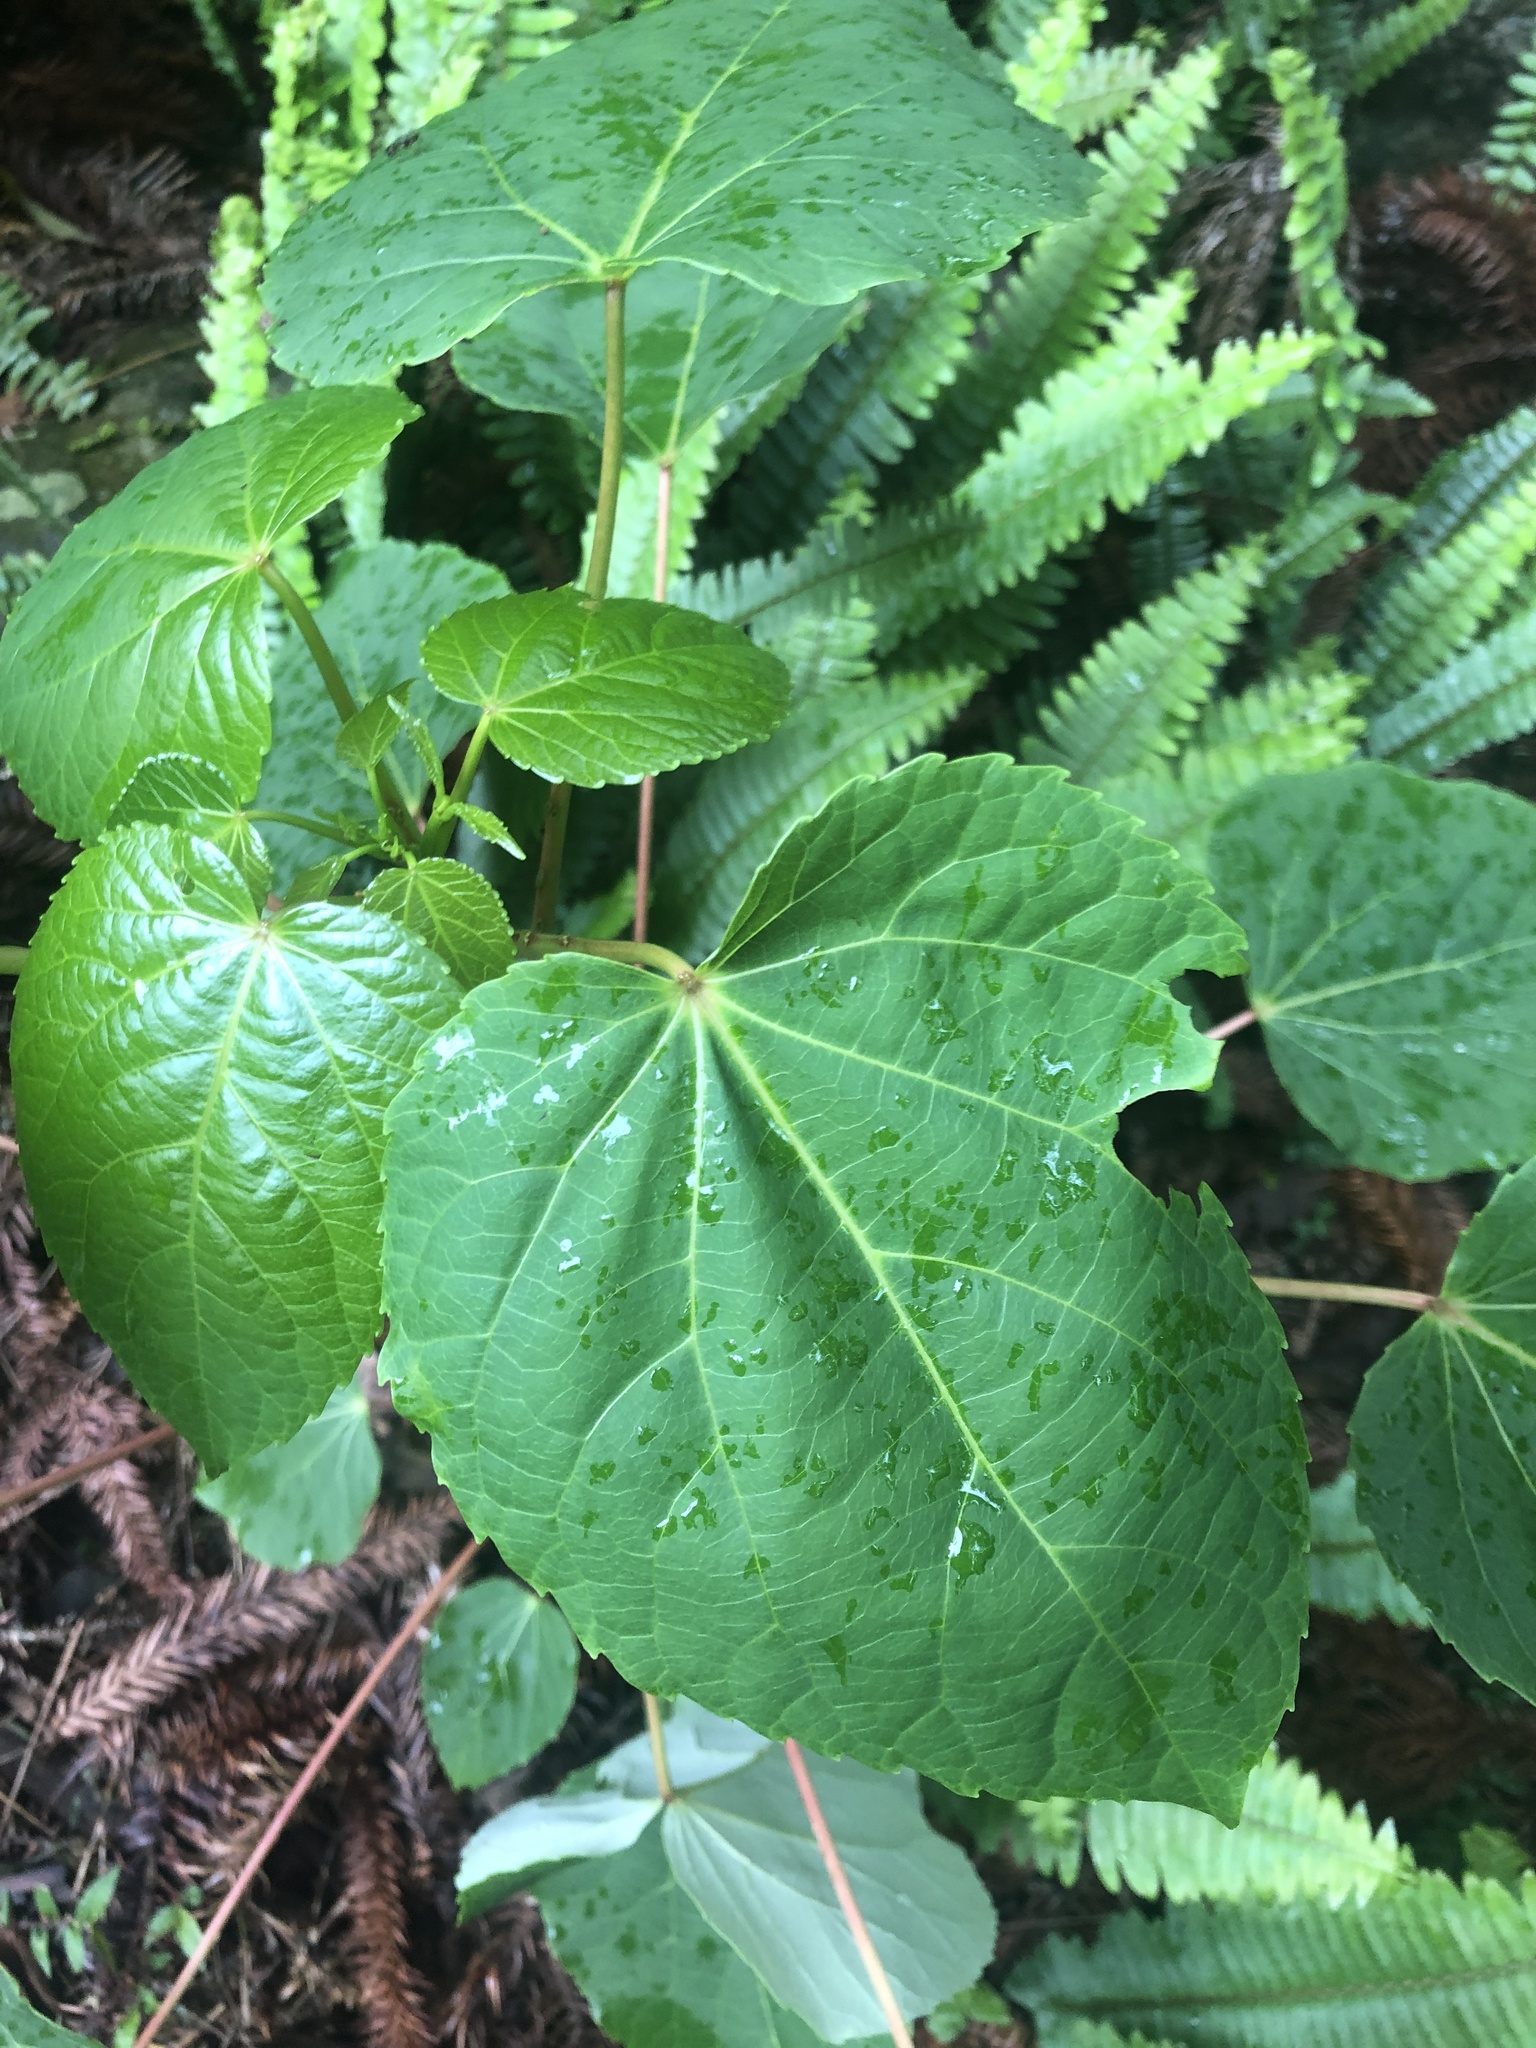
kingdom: Plantae
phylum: Tracheophyta
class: Magnoliopsida
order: Malpighiales
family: Salicaceae
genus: Idesia
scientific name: Idesia polycarpa
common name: Idesia tree
